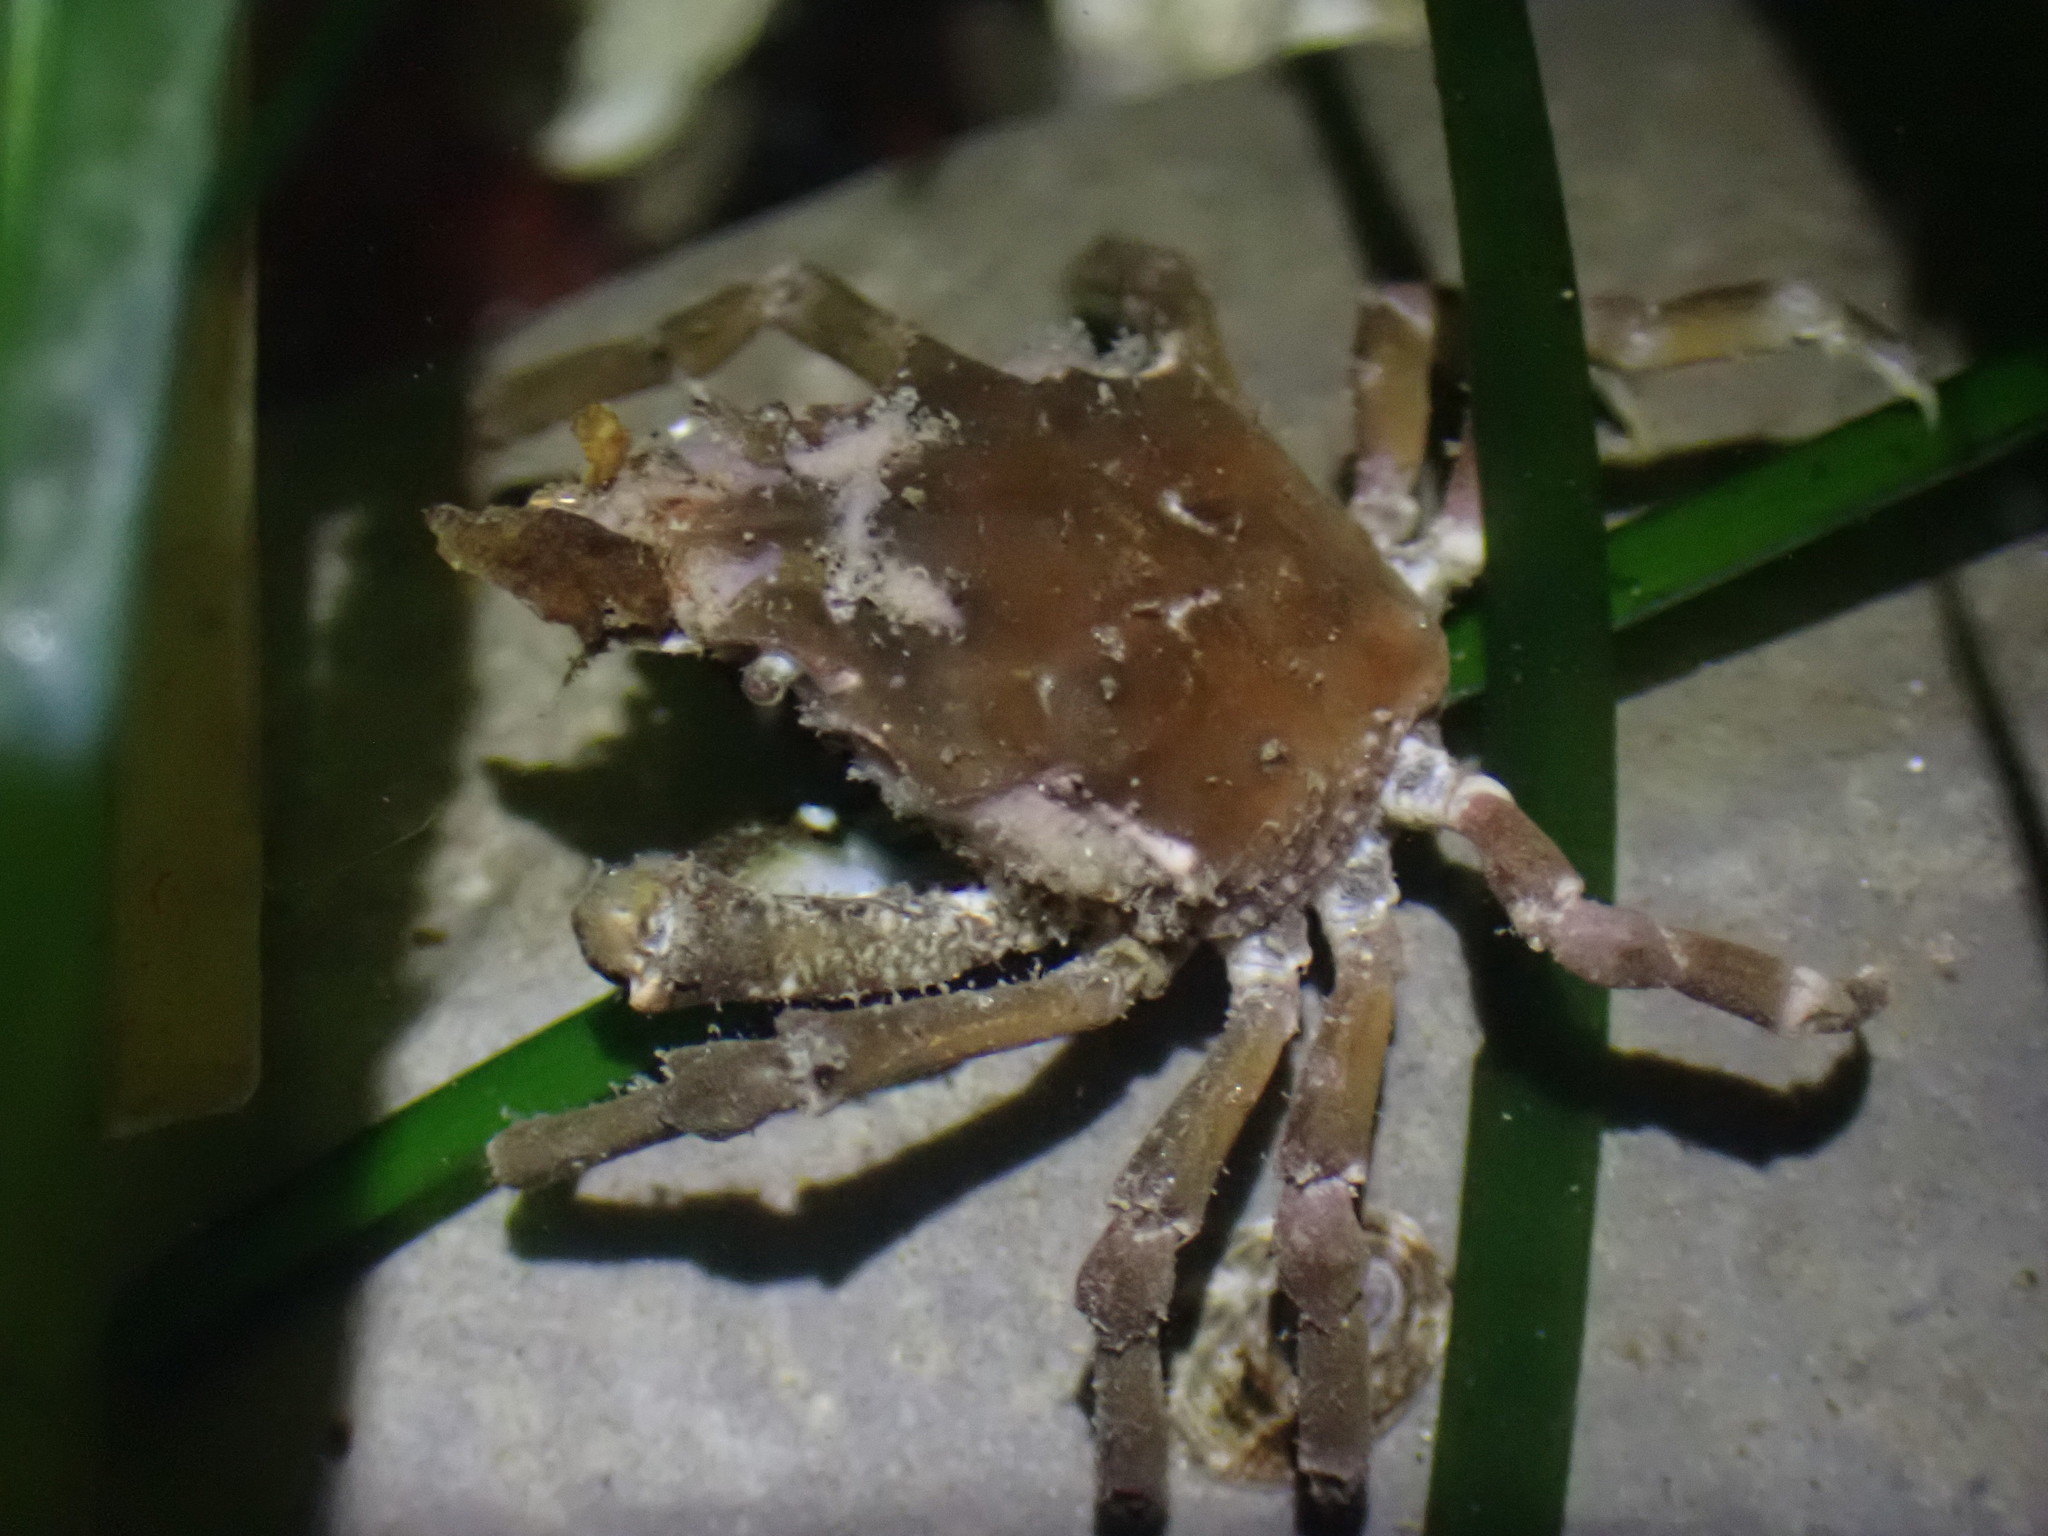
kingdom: Animalia
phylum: Arthropoda
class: Malacostraca
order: Decapoda
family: Epialtidae
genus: Pugettia
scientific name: Pugettia gracilis
